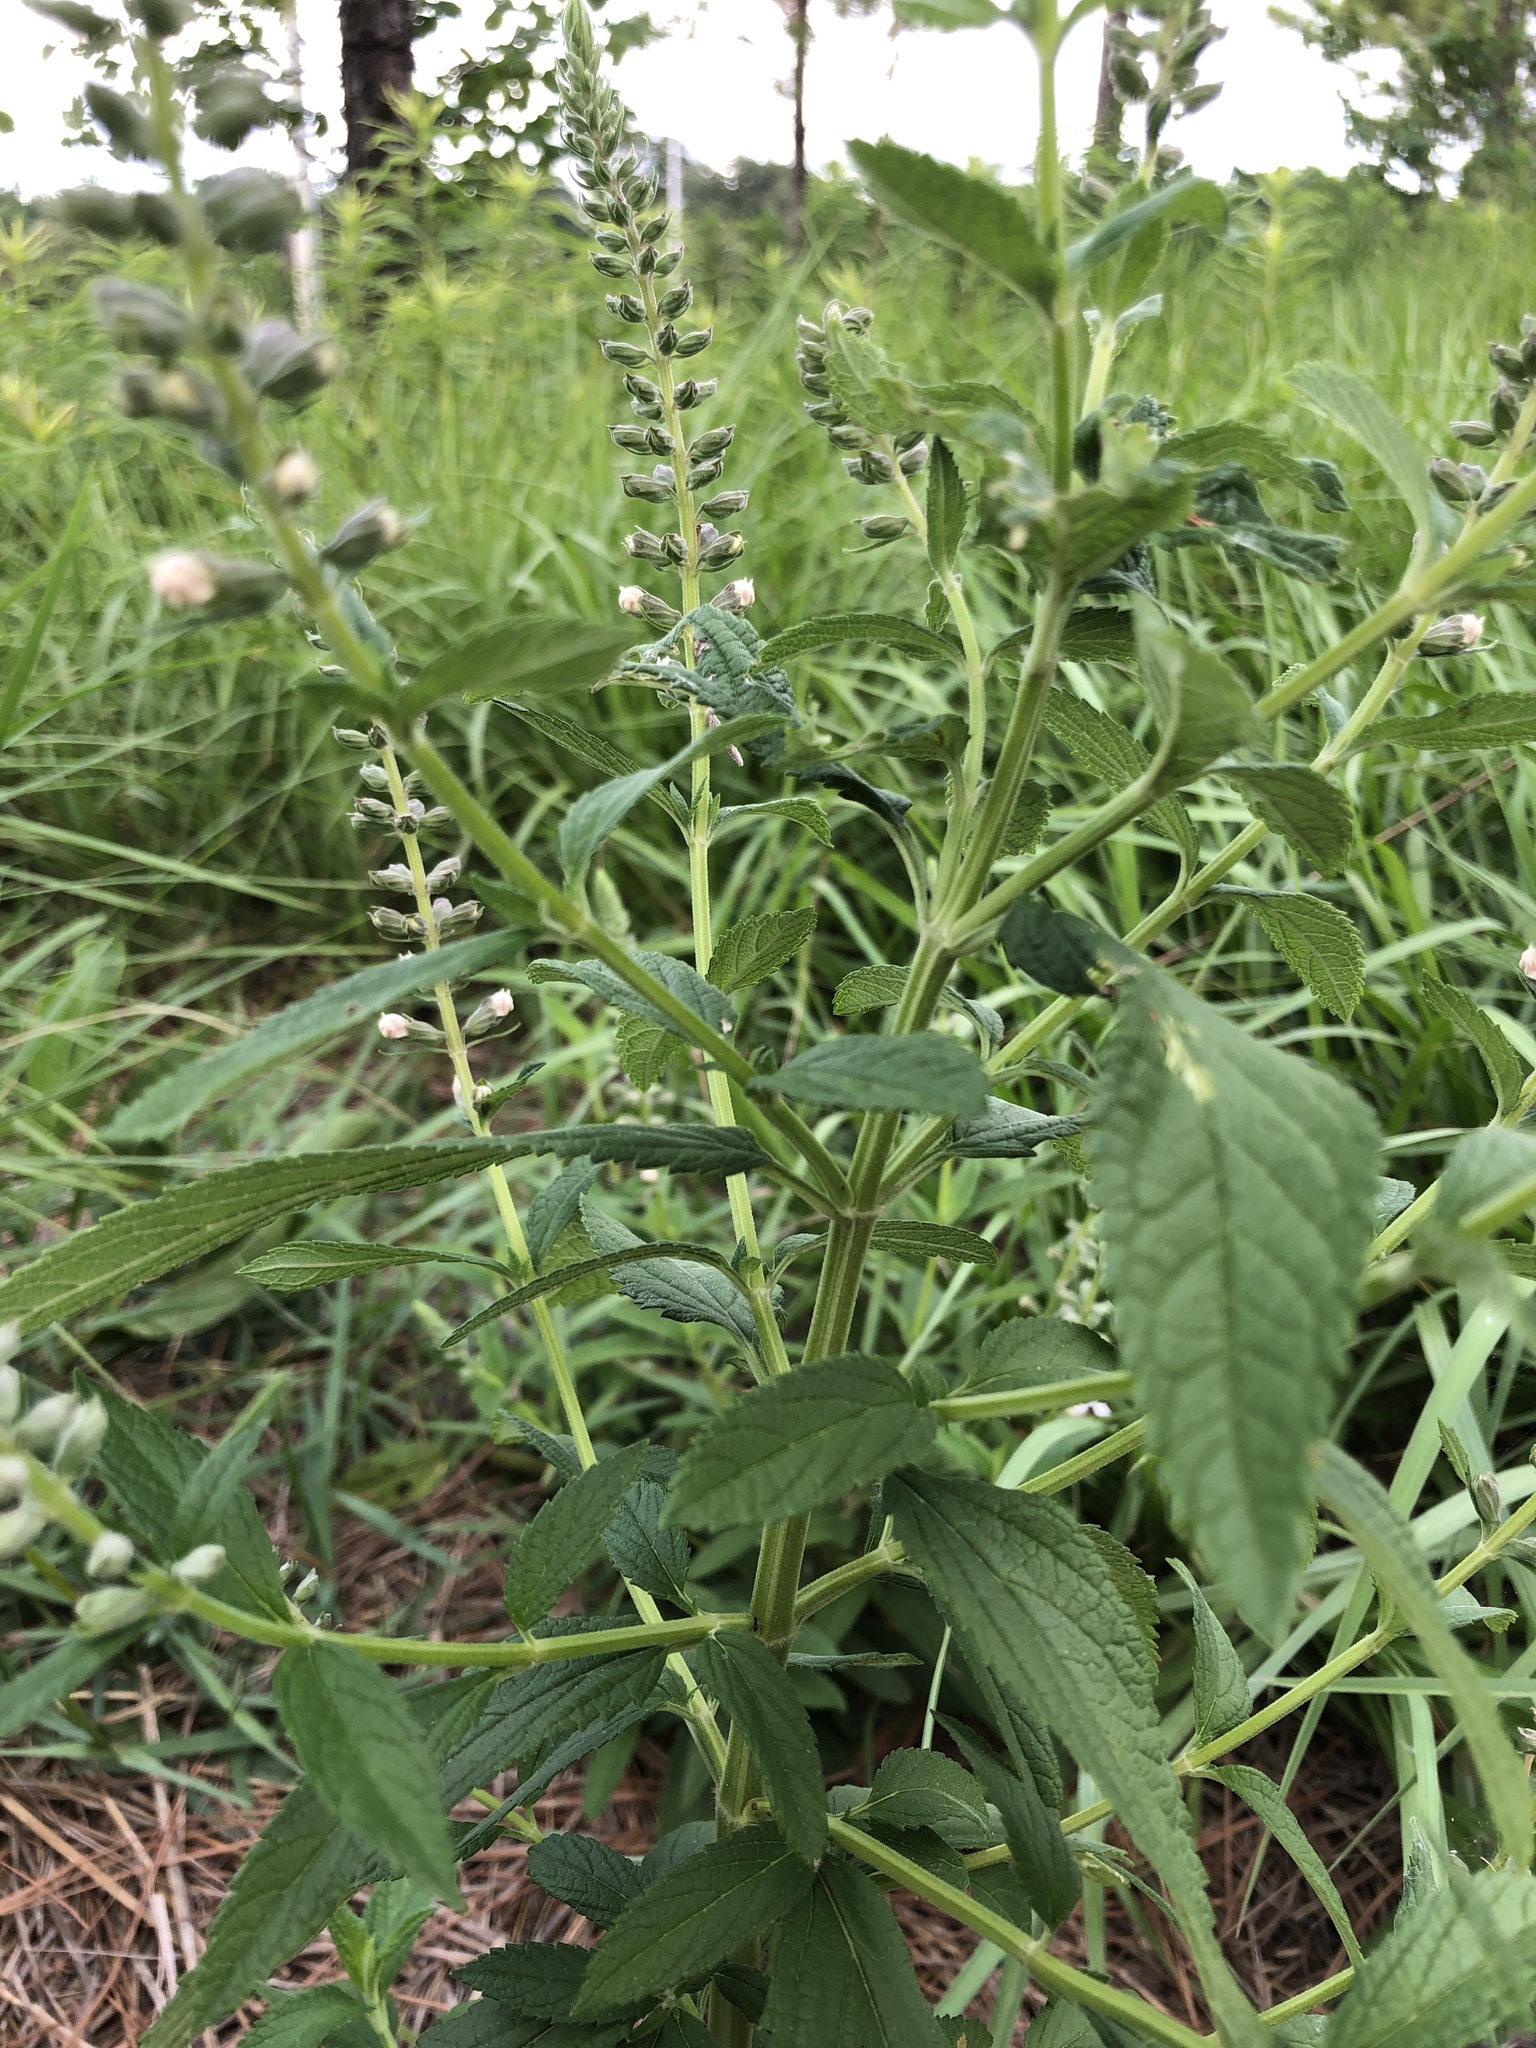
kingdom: Plantae
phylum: Tracheophyta
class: Magnoliopsida
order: Lamiales
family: Lamiaceae
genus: Teucrium
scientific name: Teucrium canadense
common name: American germander
